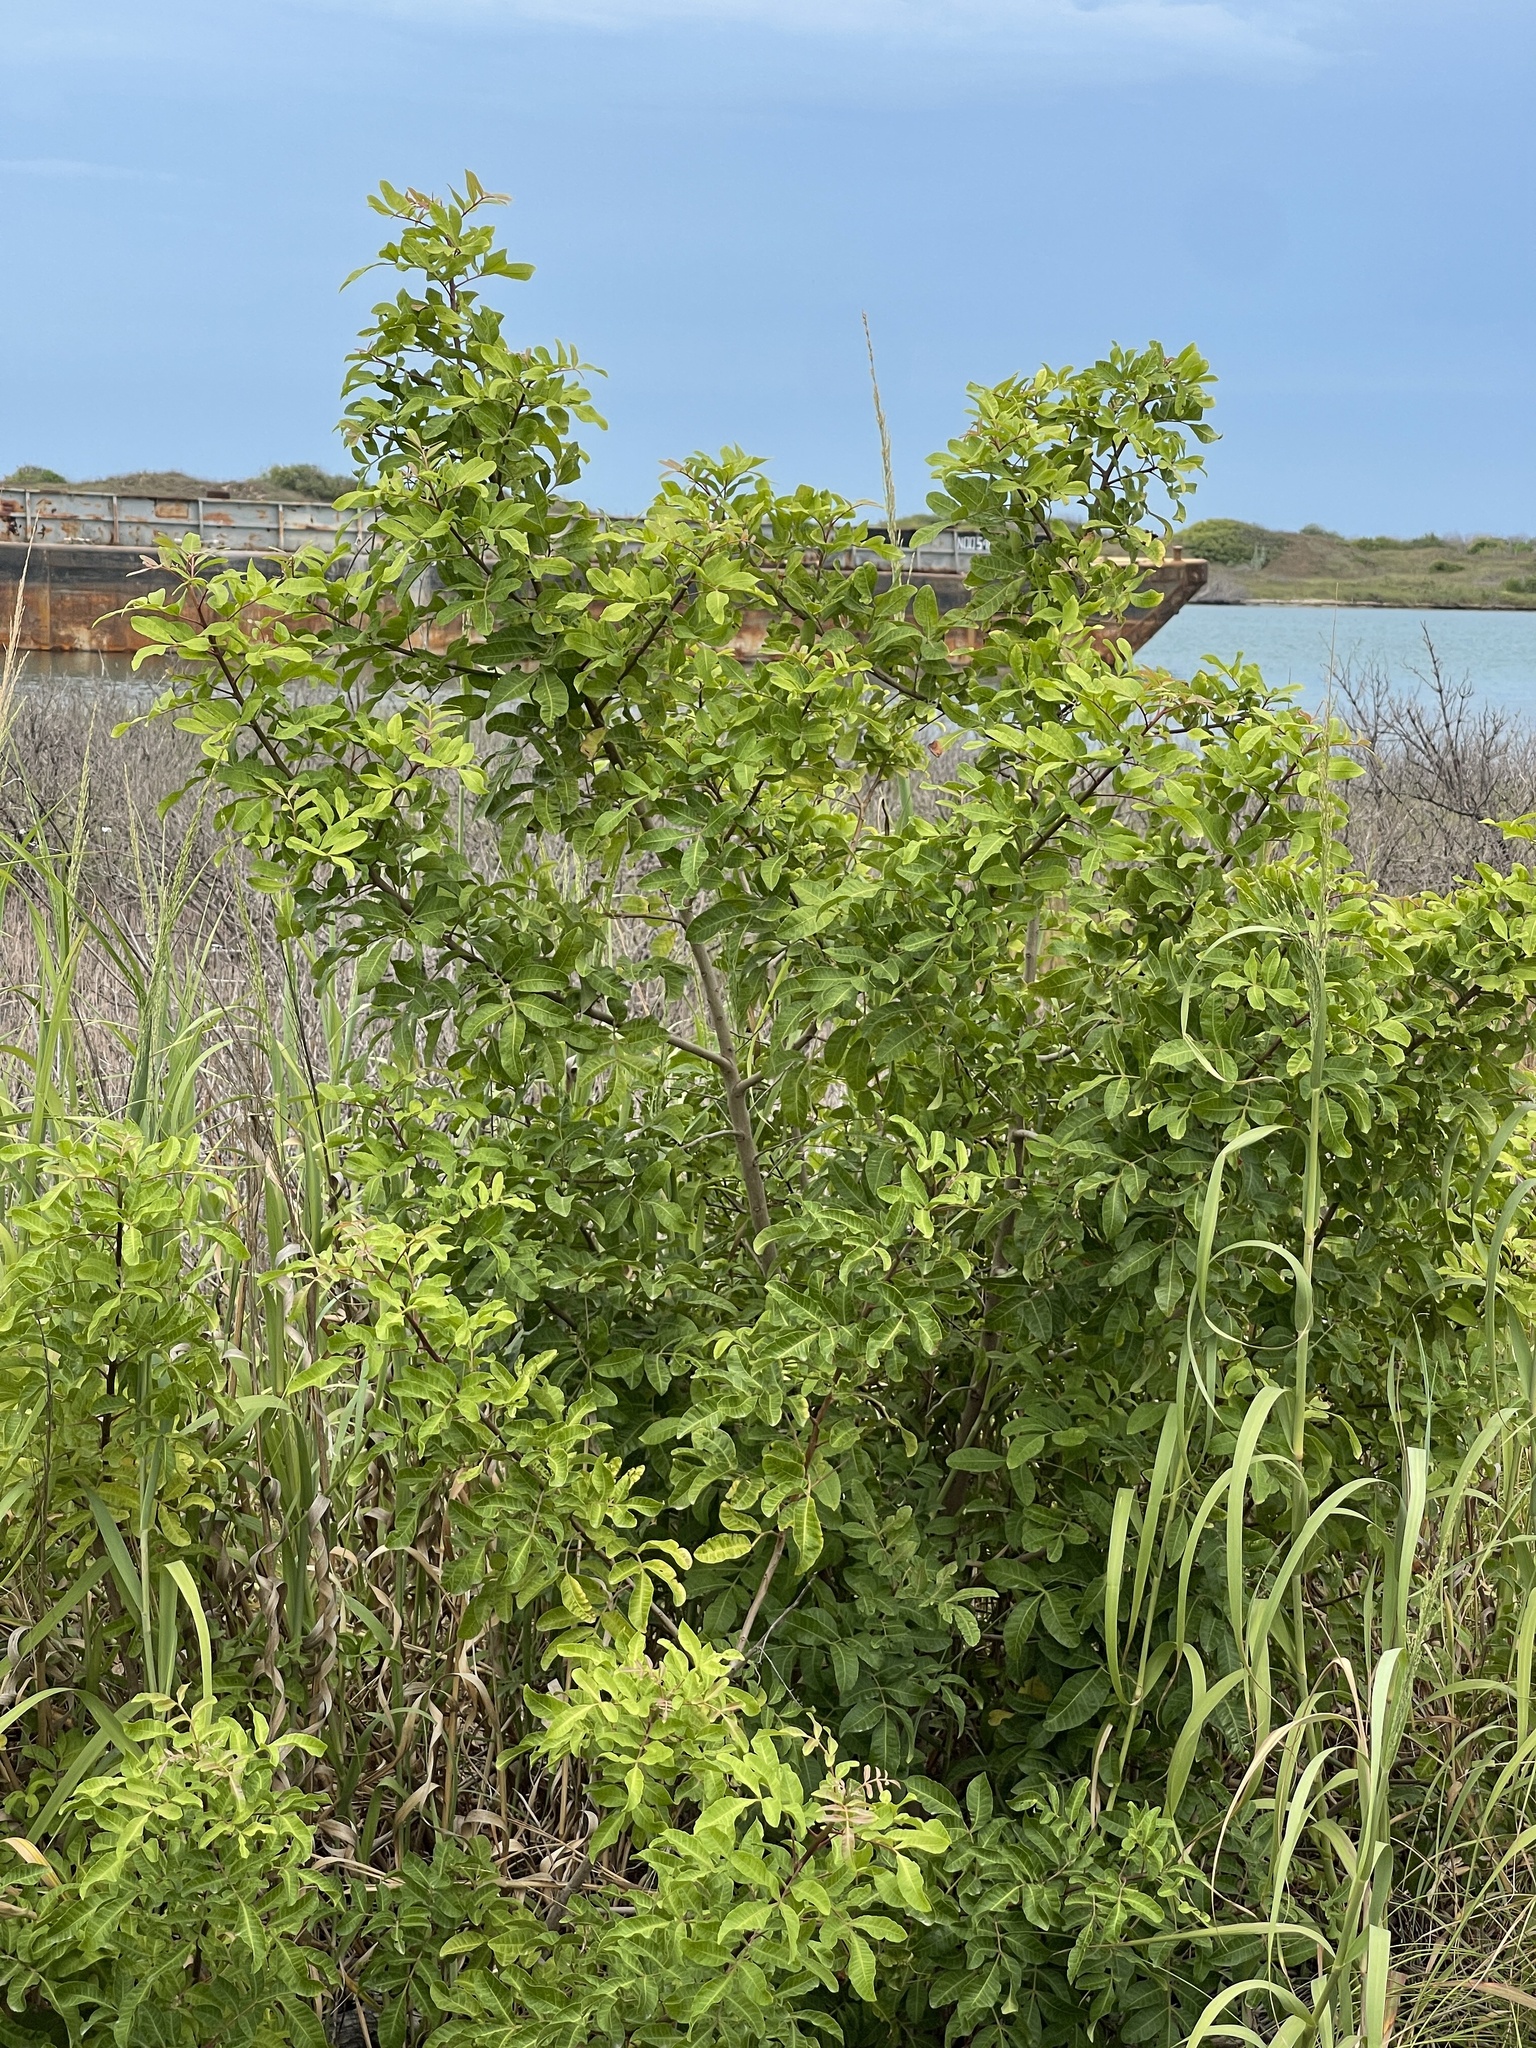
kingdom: Plantae
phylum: Tracheophyta
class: Magnoliopsida
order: Sapindales
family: Anacardiaceae
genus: Schinus
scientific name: Schinus terebinthifolia
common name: Brazilian peppertree
